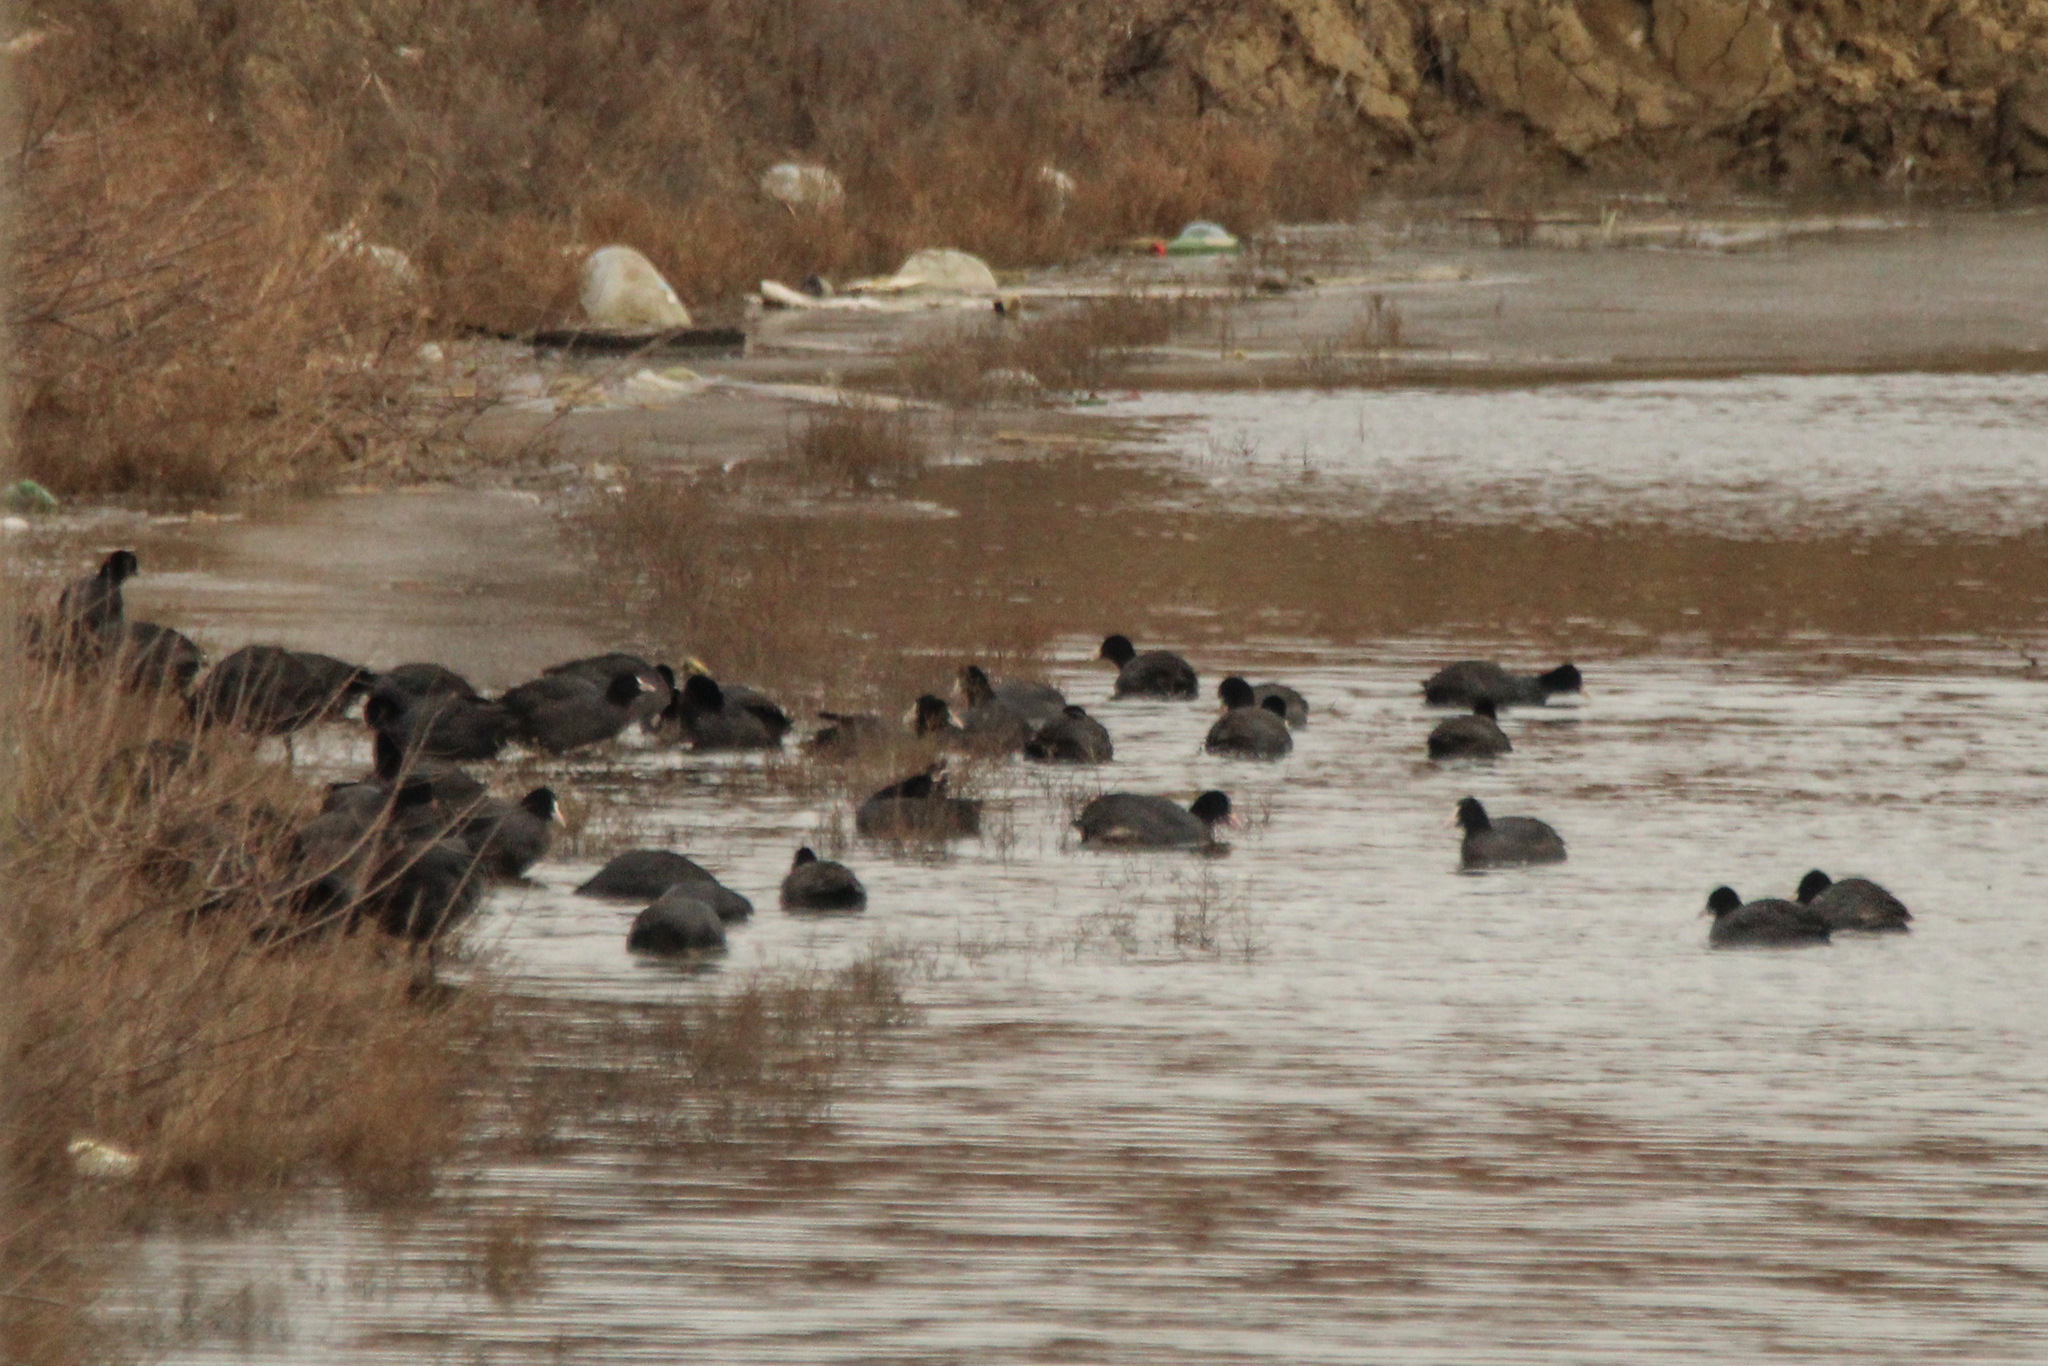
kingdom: Animalia
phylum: Chordata
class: Aves
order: Gruiformes
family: Rallidae
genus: Fulica
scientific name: Fulica atra
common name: Eurasian coot
